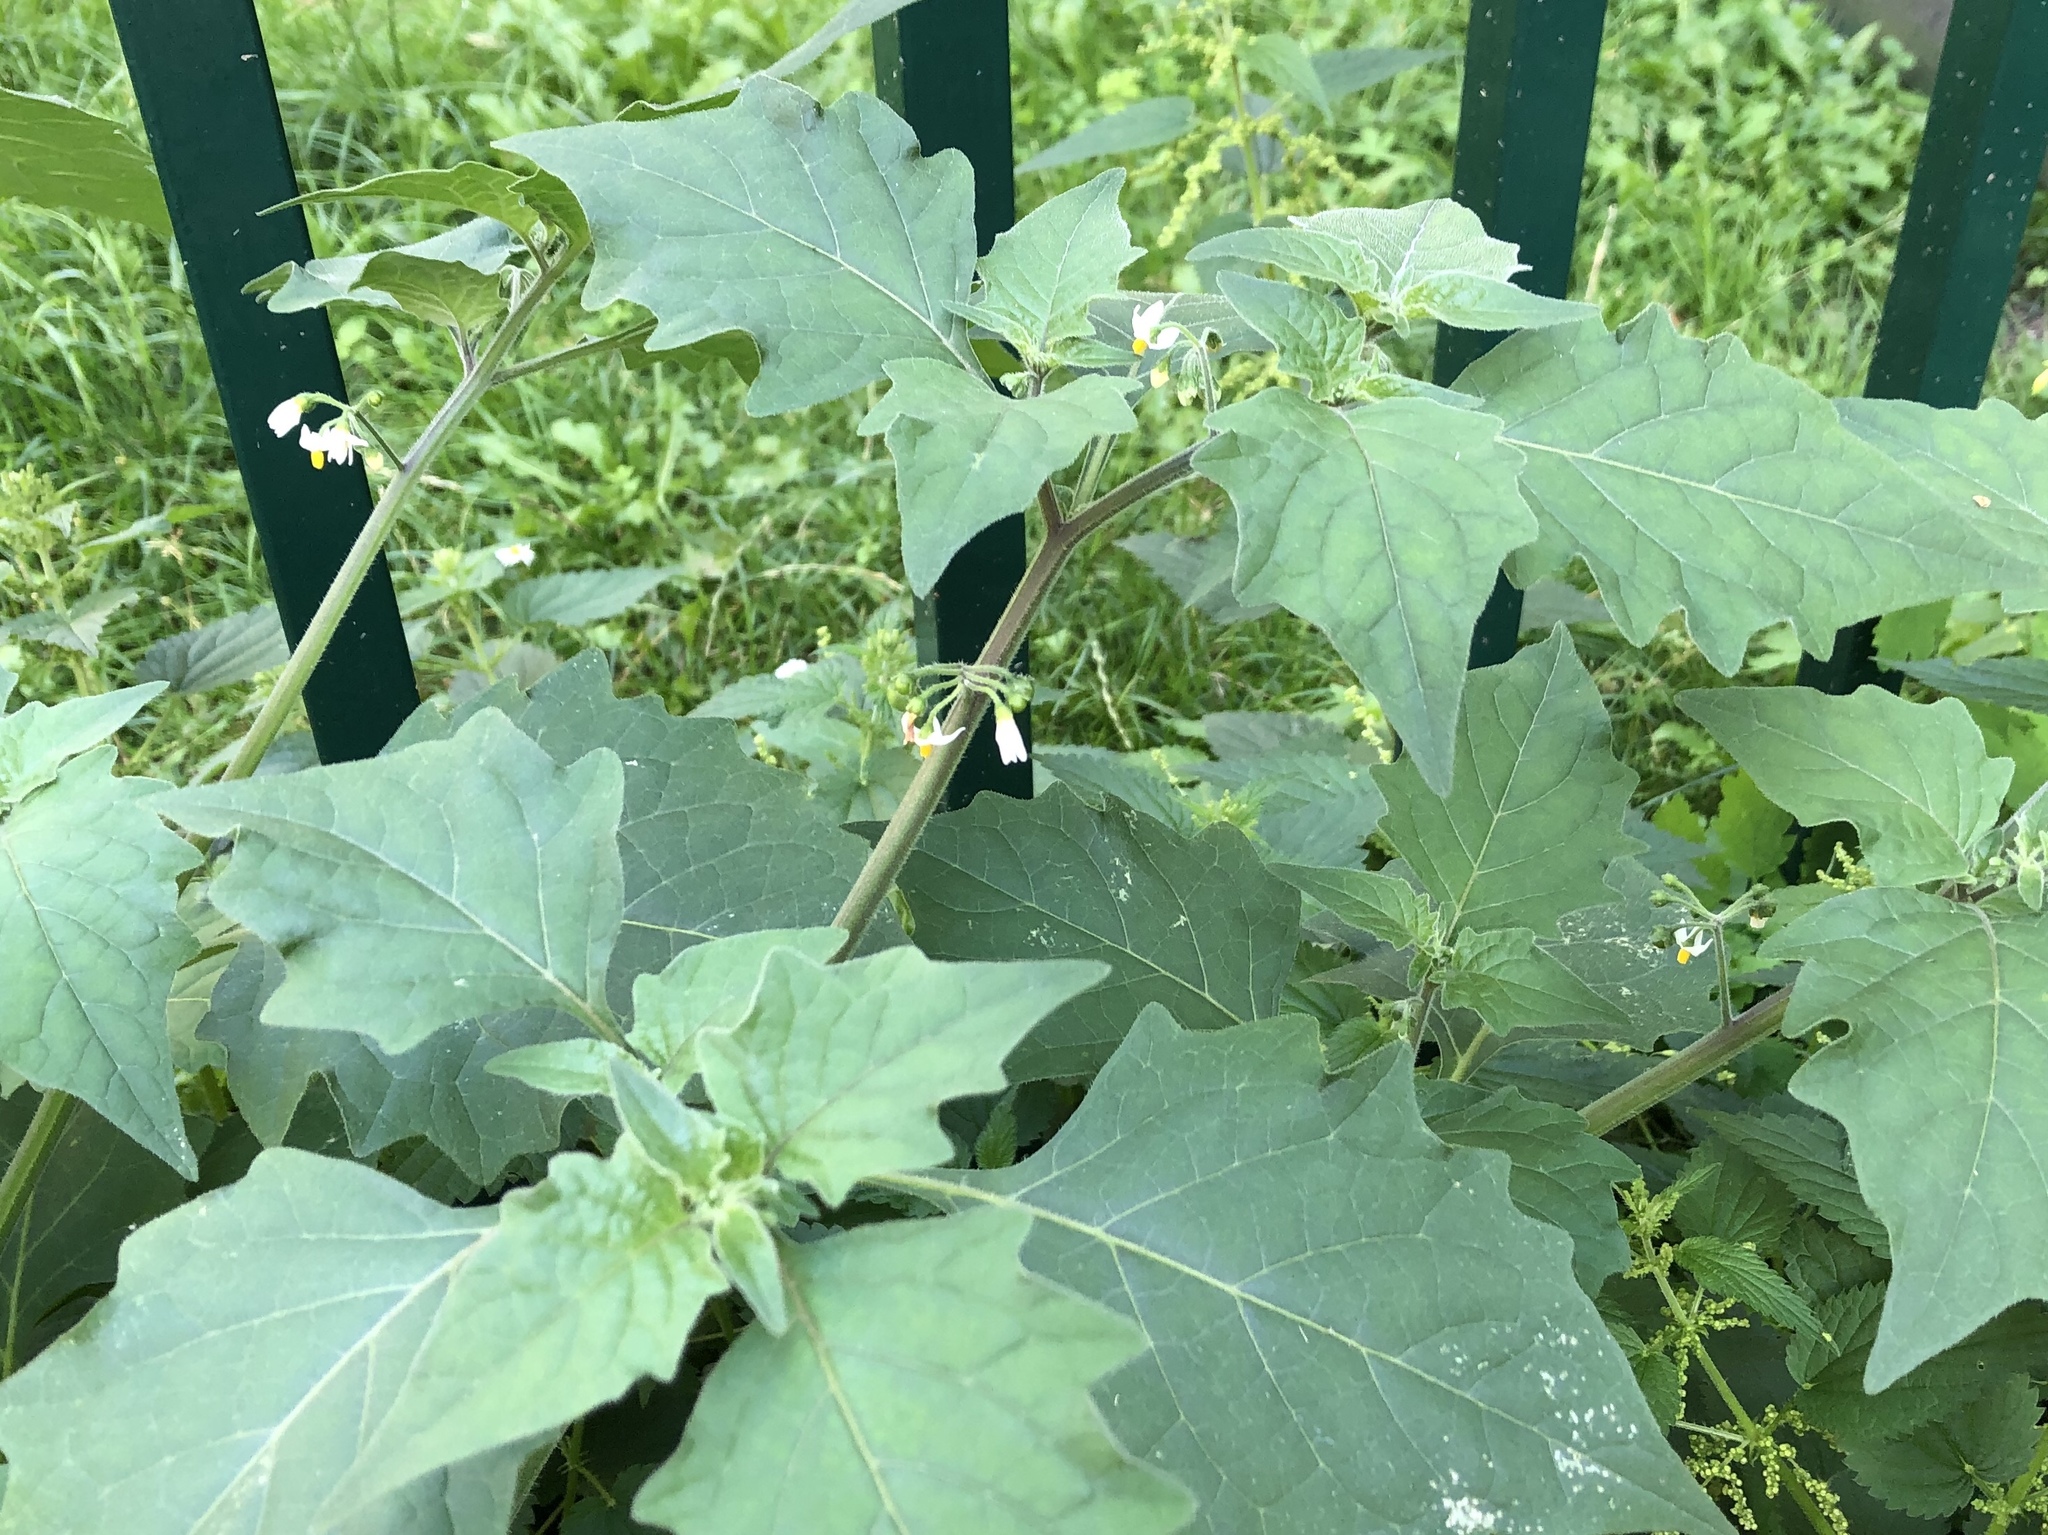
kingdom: Plantae
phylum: Tracheophyta
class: Magnoliopsida
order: Solanales
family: Solanaceae
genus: Solanum
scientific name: Solanum decipiens
